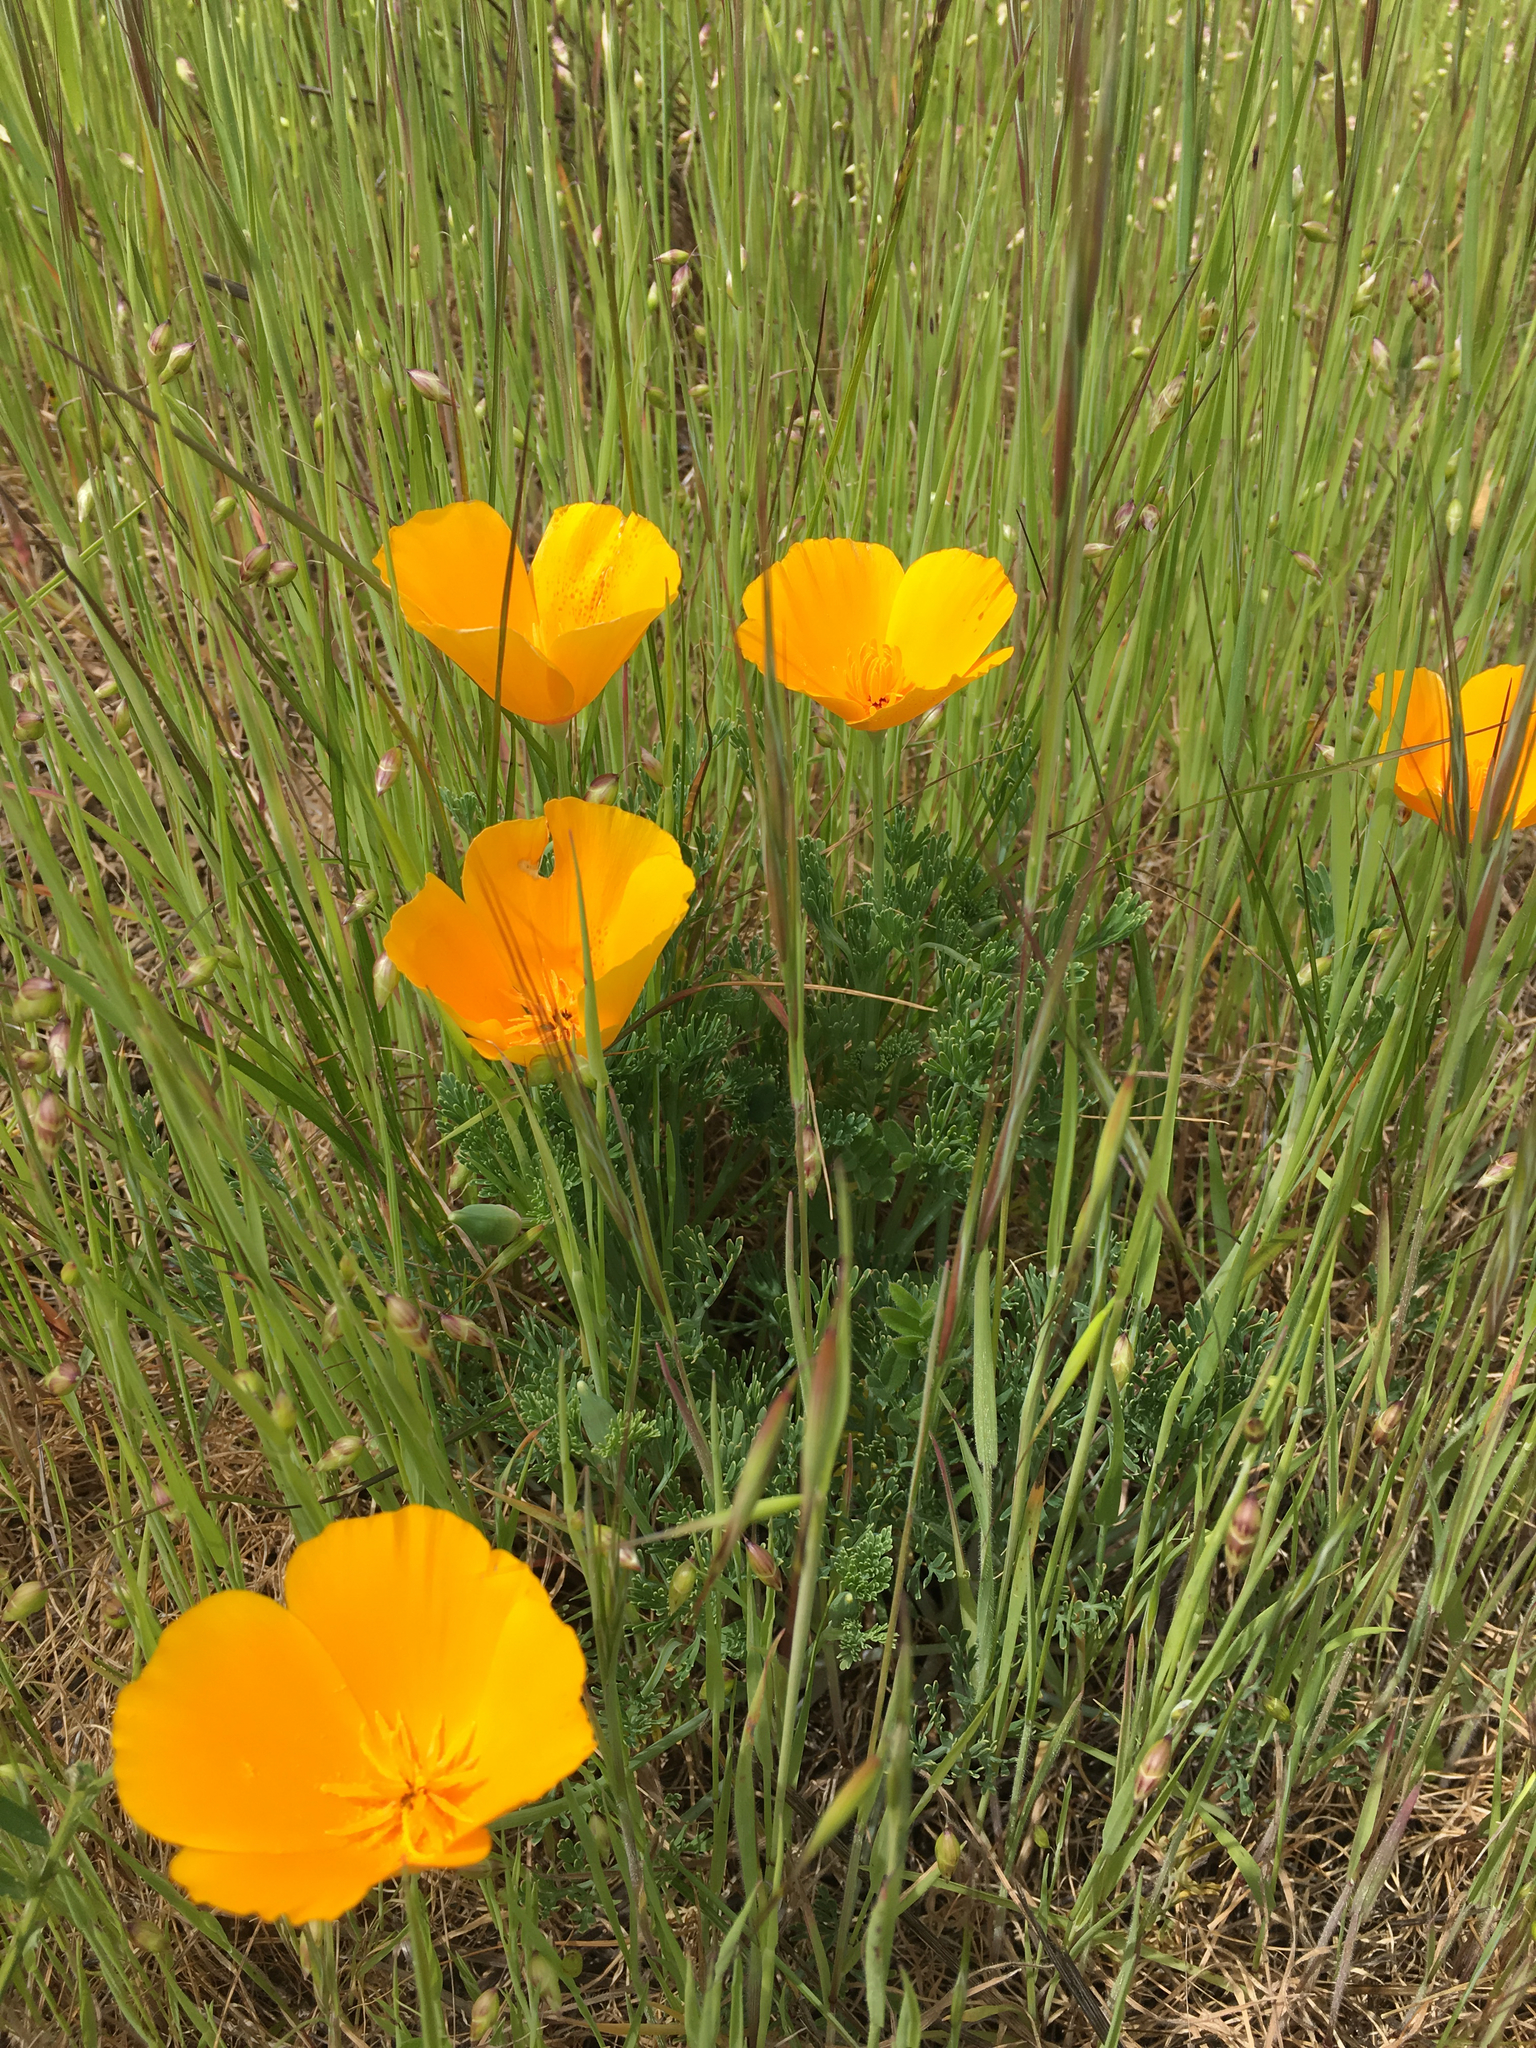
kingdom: Plantae
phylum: Tracheophyta
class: Magnoliopsida
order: Ranunculales
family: Papaveraceae
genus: Eschscholzia
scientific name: Eschscholzia californica
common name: California poppy
